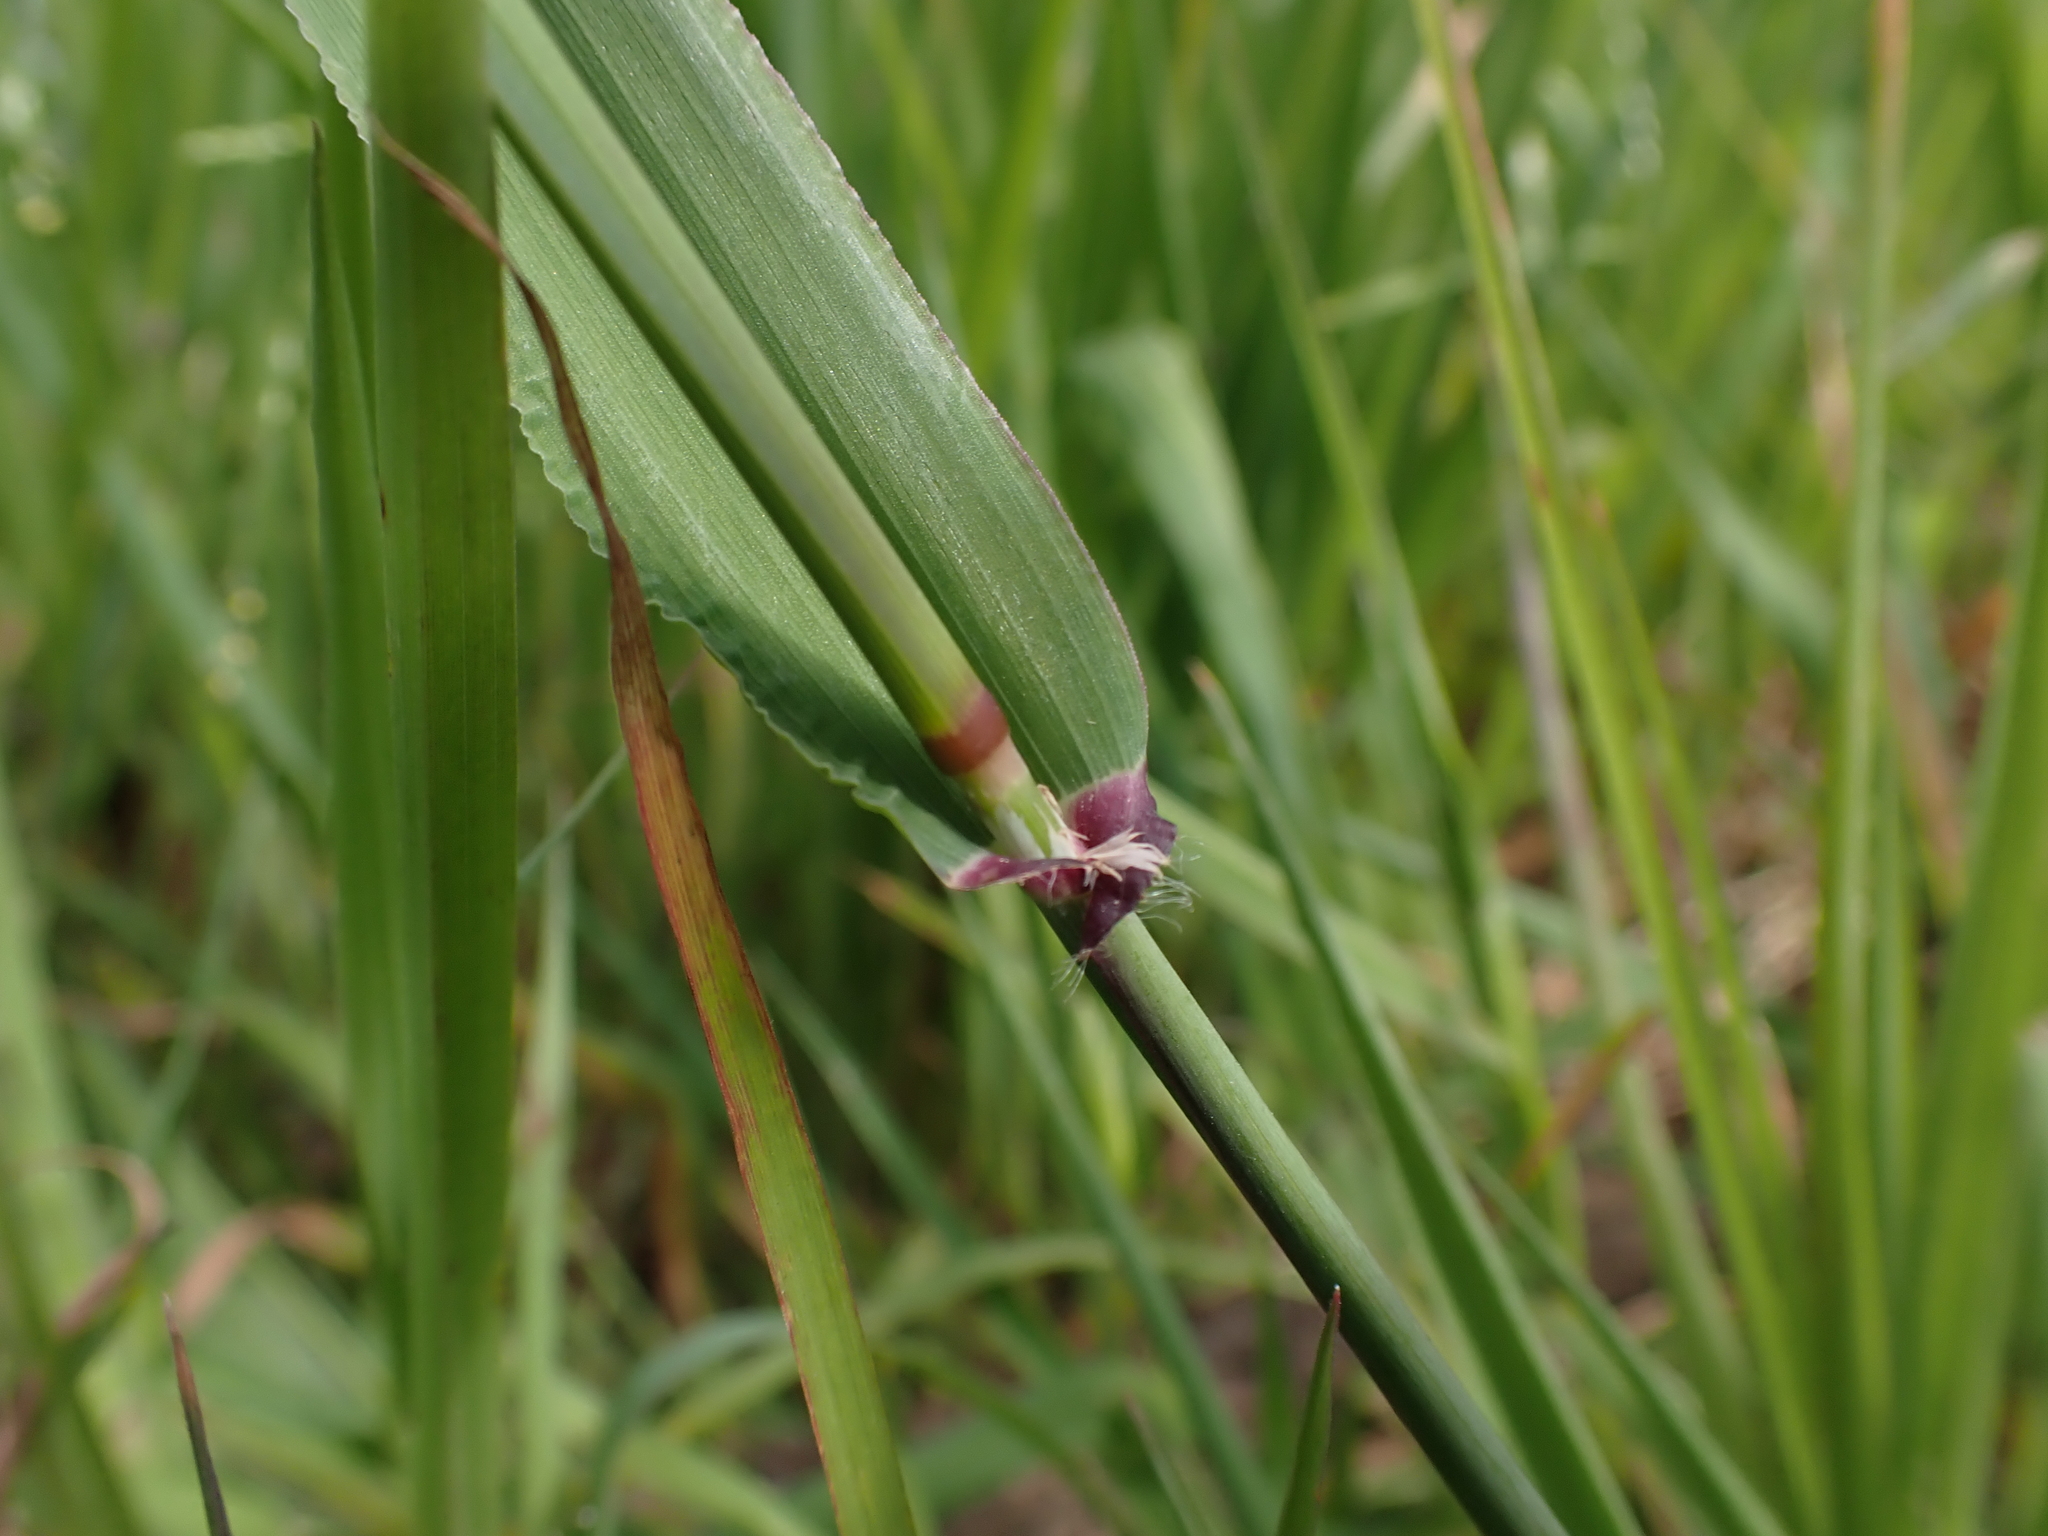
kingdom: Plantae
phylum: Tracheophyta
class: Liliopsida
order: Poales
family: Poaceae
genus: Ehrharta
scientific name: Ehrharta longiflora
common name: Longflowered veldtgrass
